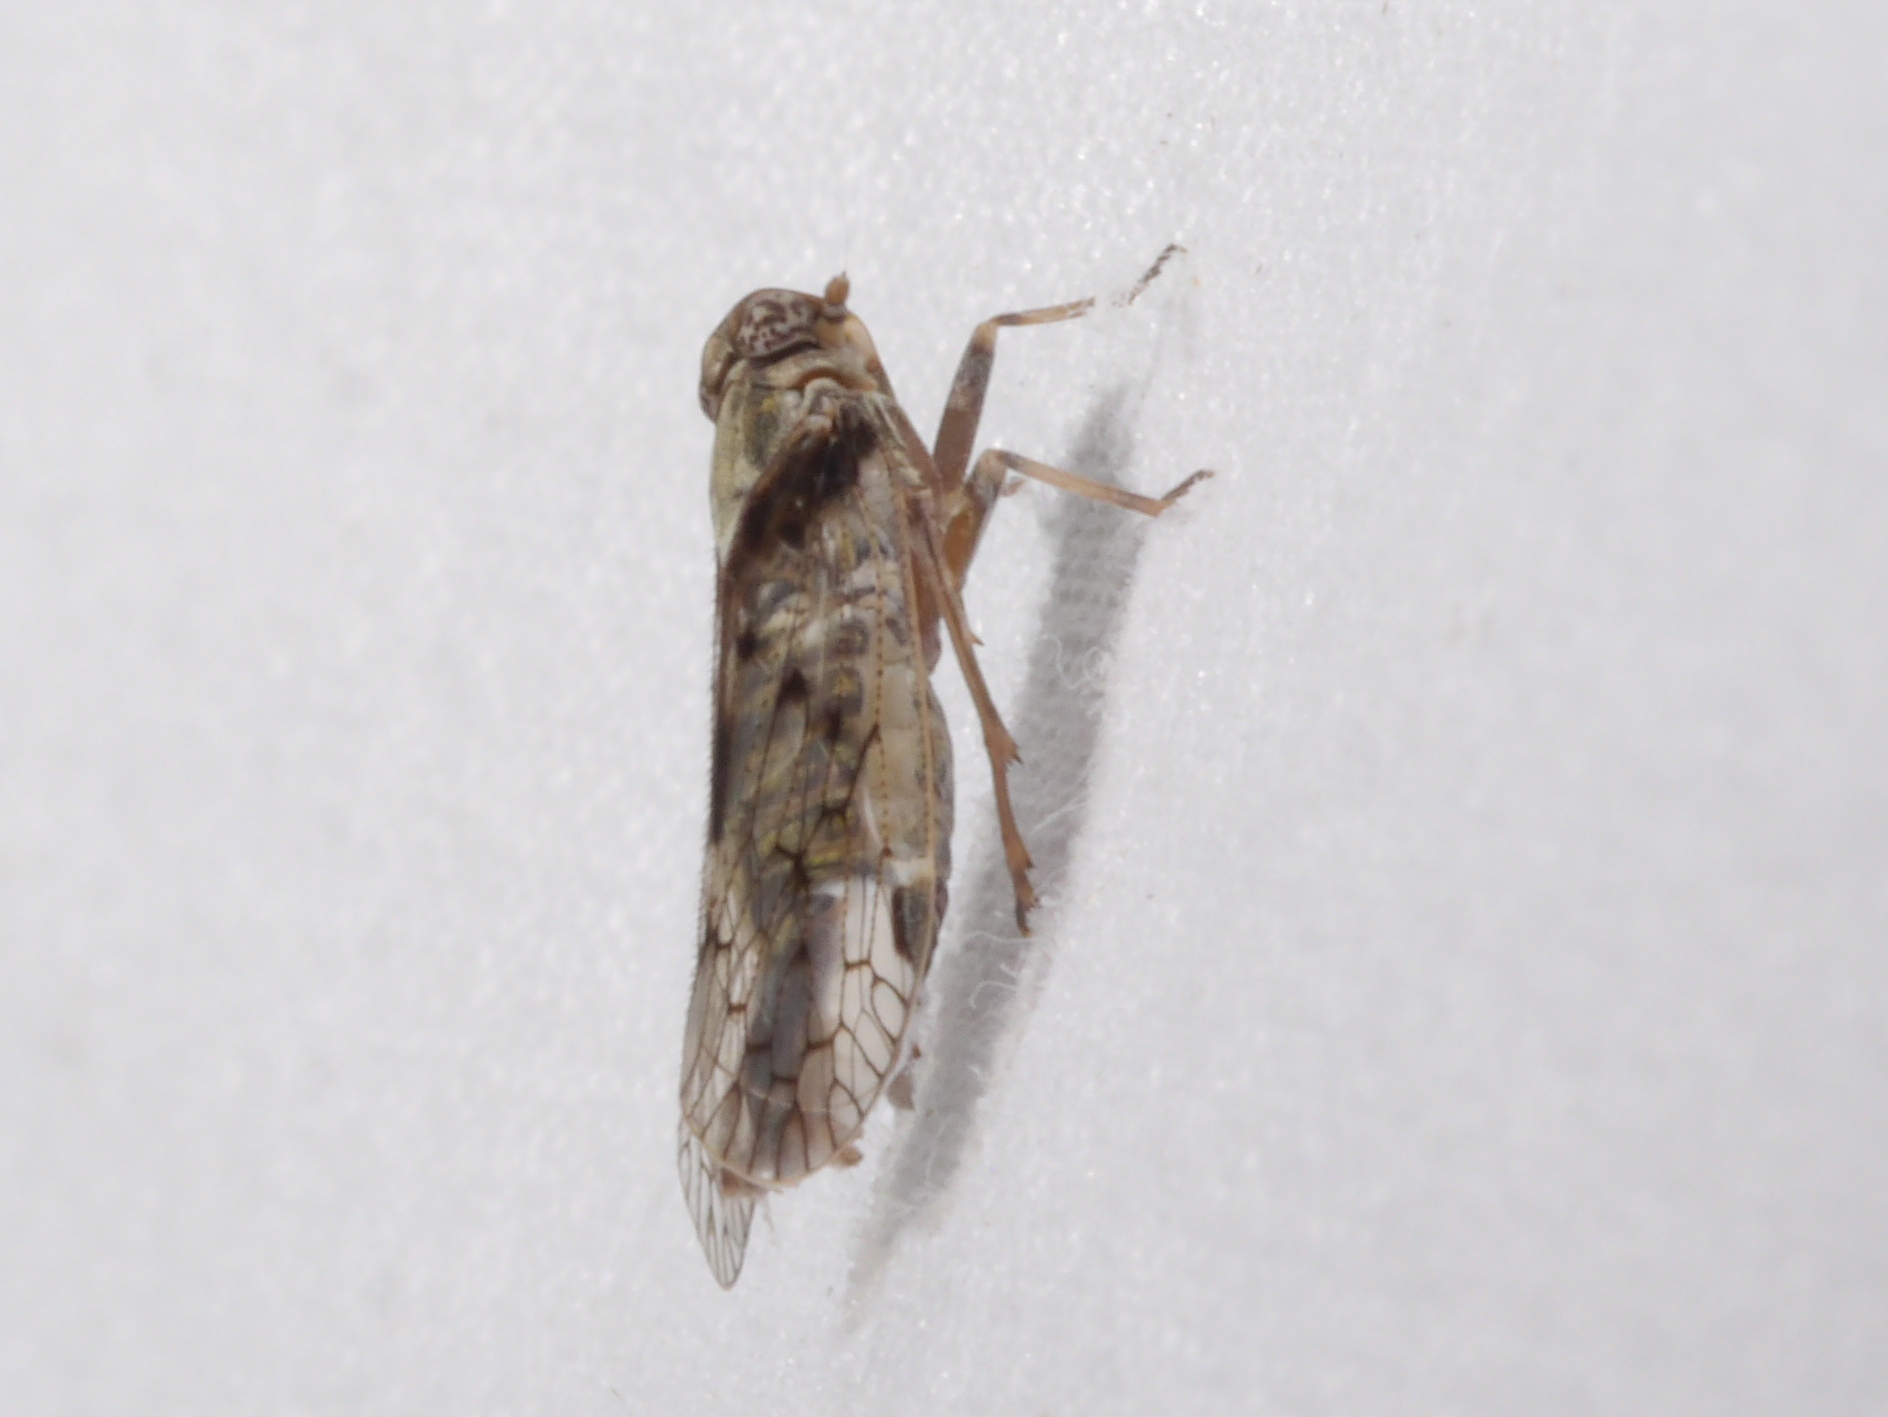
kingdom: Animalia
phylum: Arthropoda
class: Insecta
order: Hemiptera
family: Cixiidae
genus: Melanoliarus
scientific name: Melanoliarus aridus
